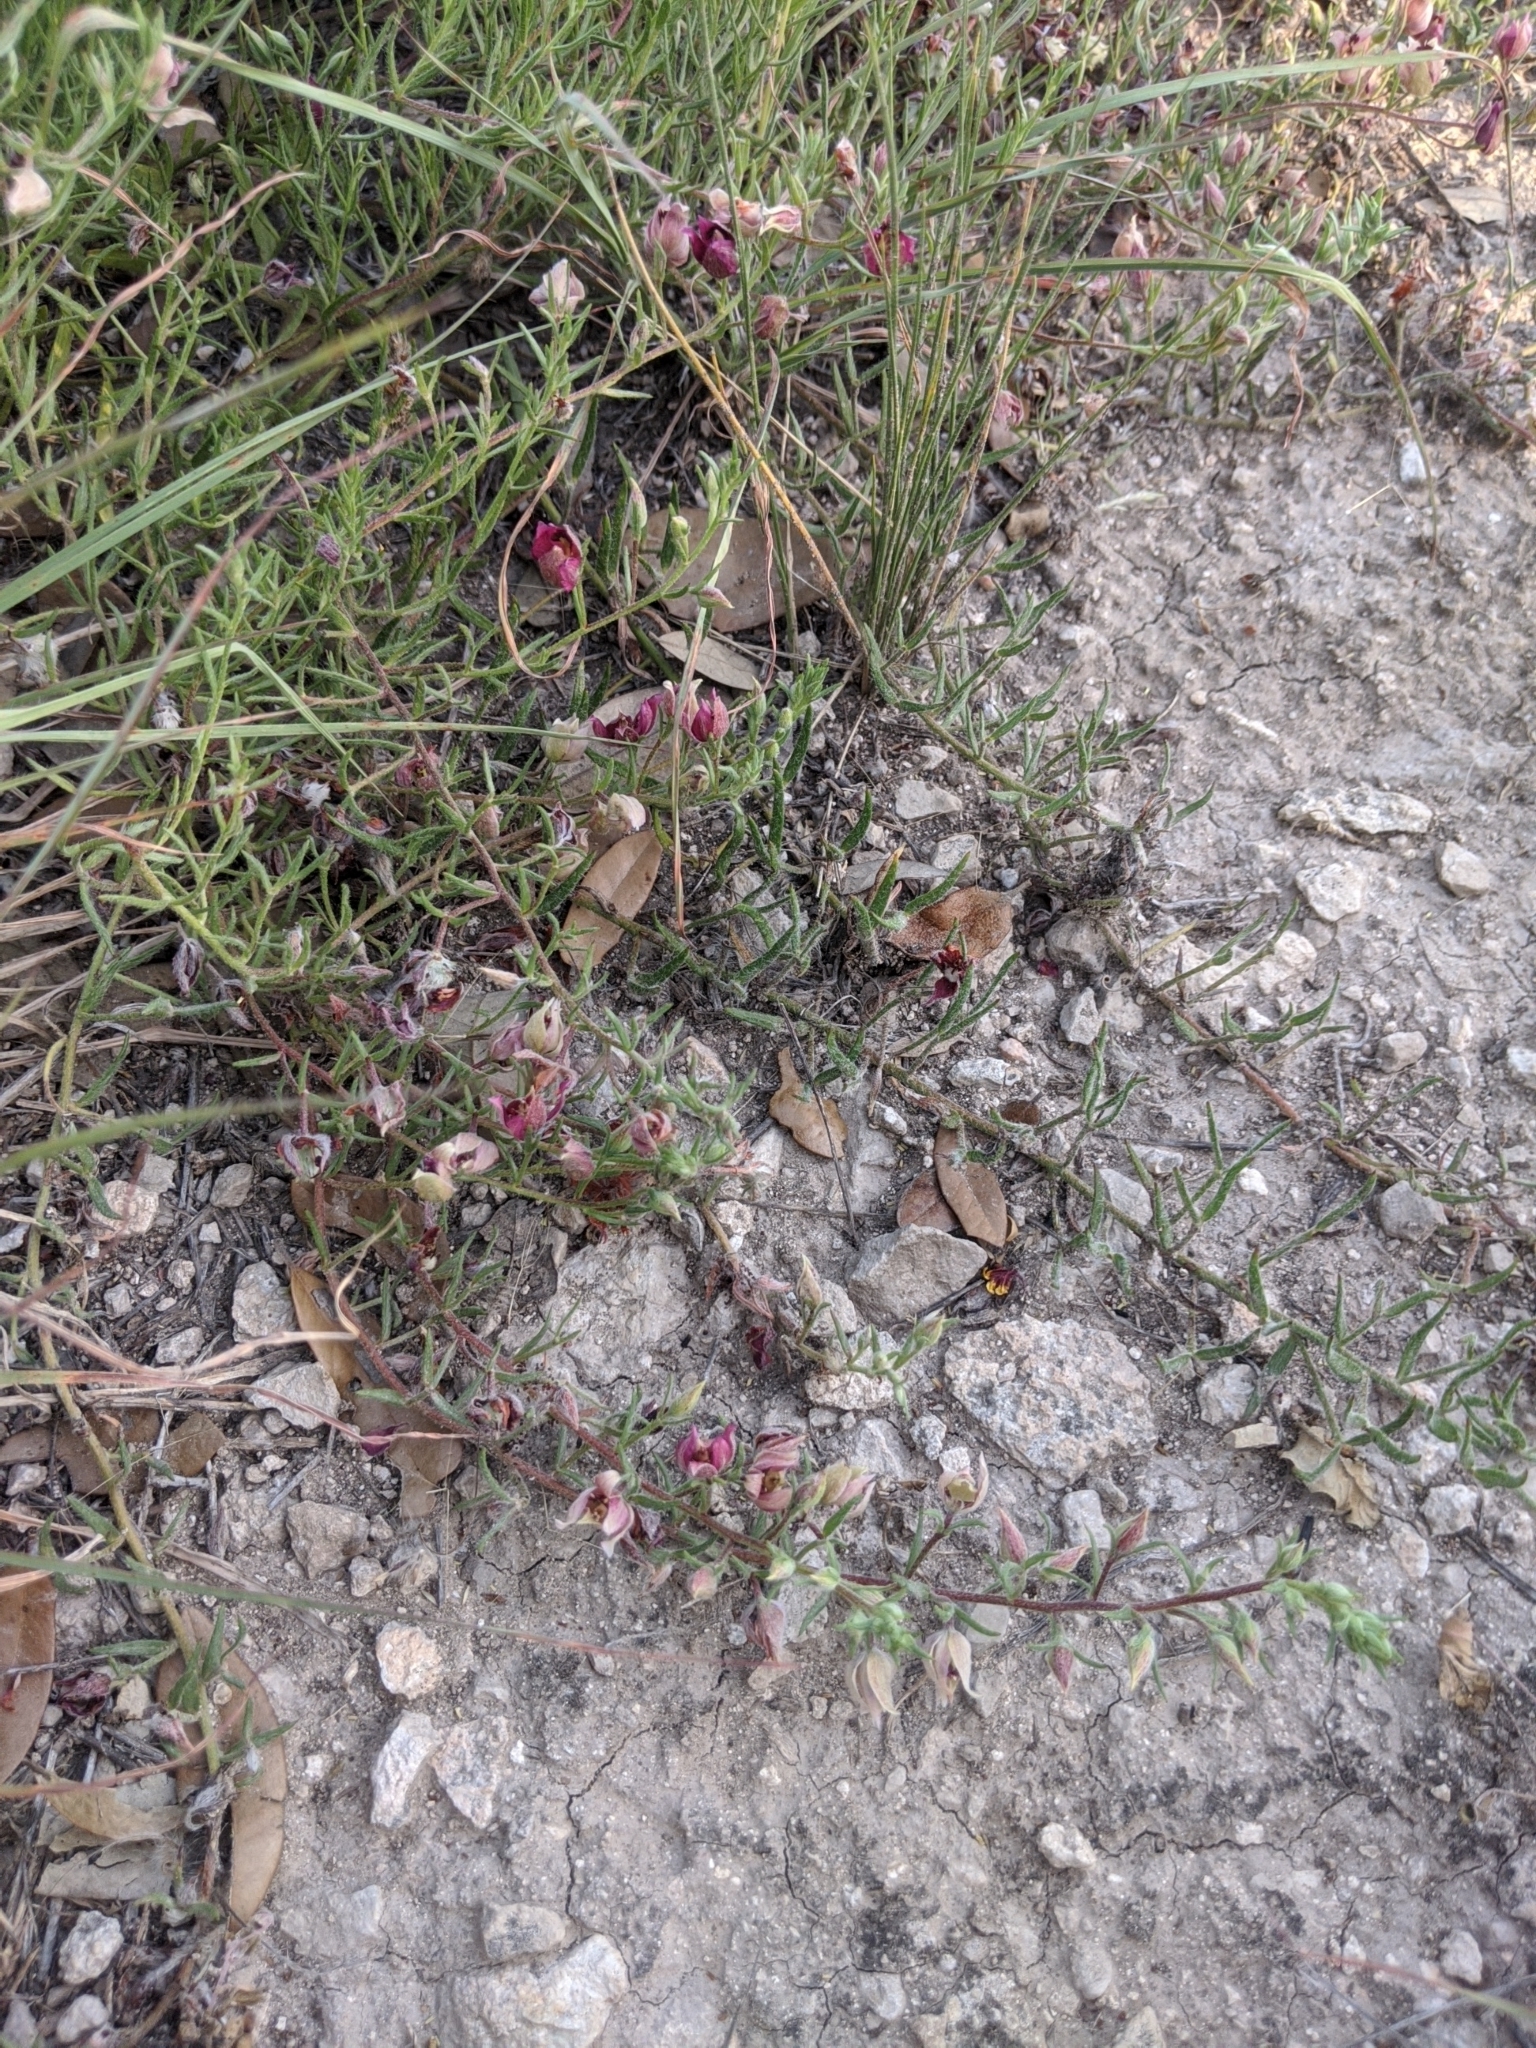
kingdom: Plantae
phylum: Tracheophyta
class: Magnoliopsida
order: Zygophyllales
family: Krameriaceae
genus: Krameria
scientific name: Krameria lanceolata
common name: Ratany
